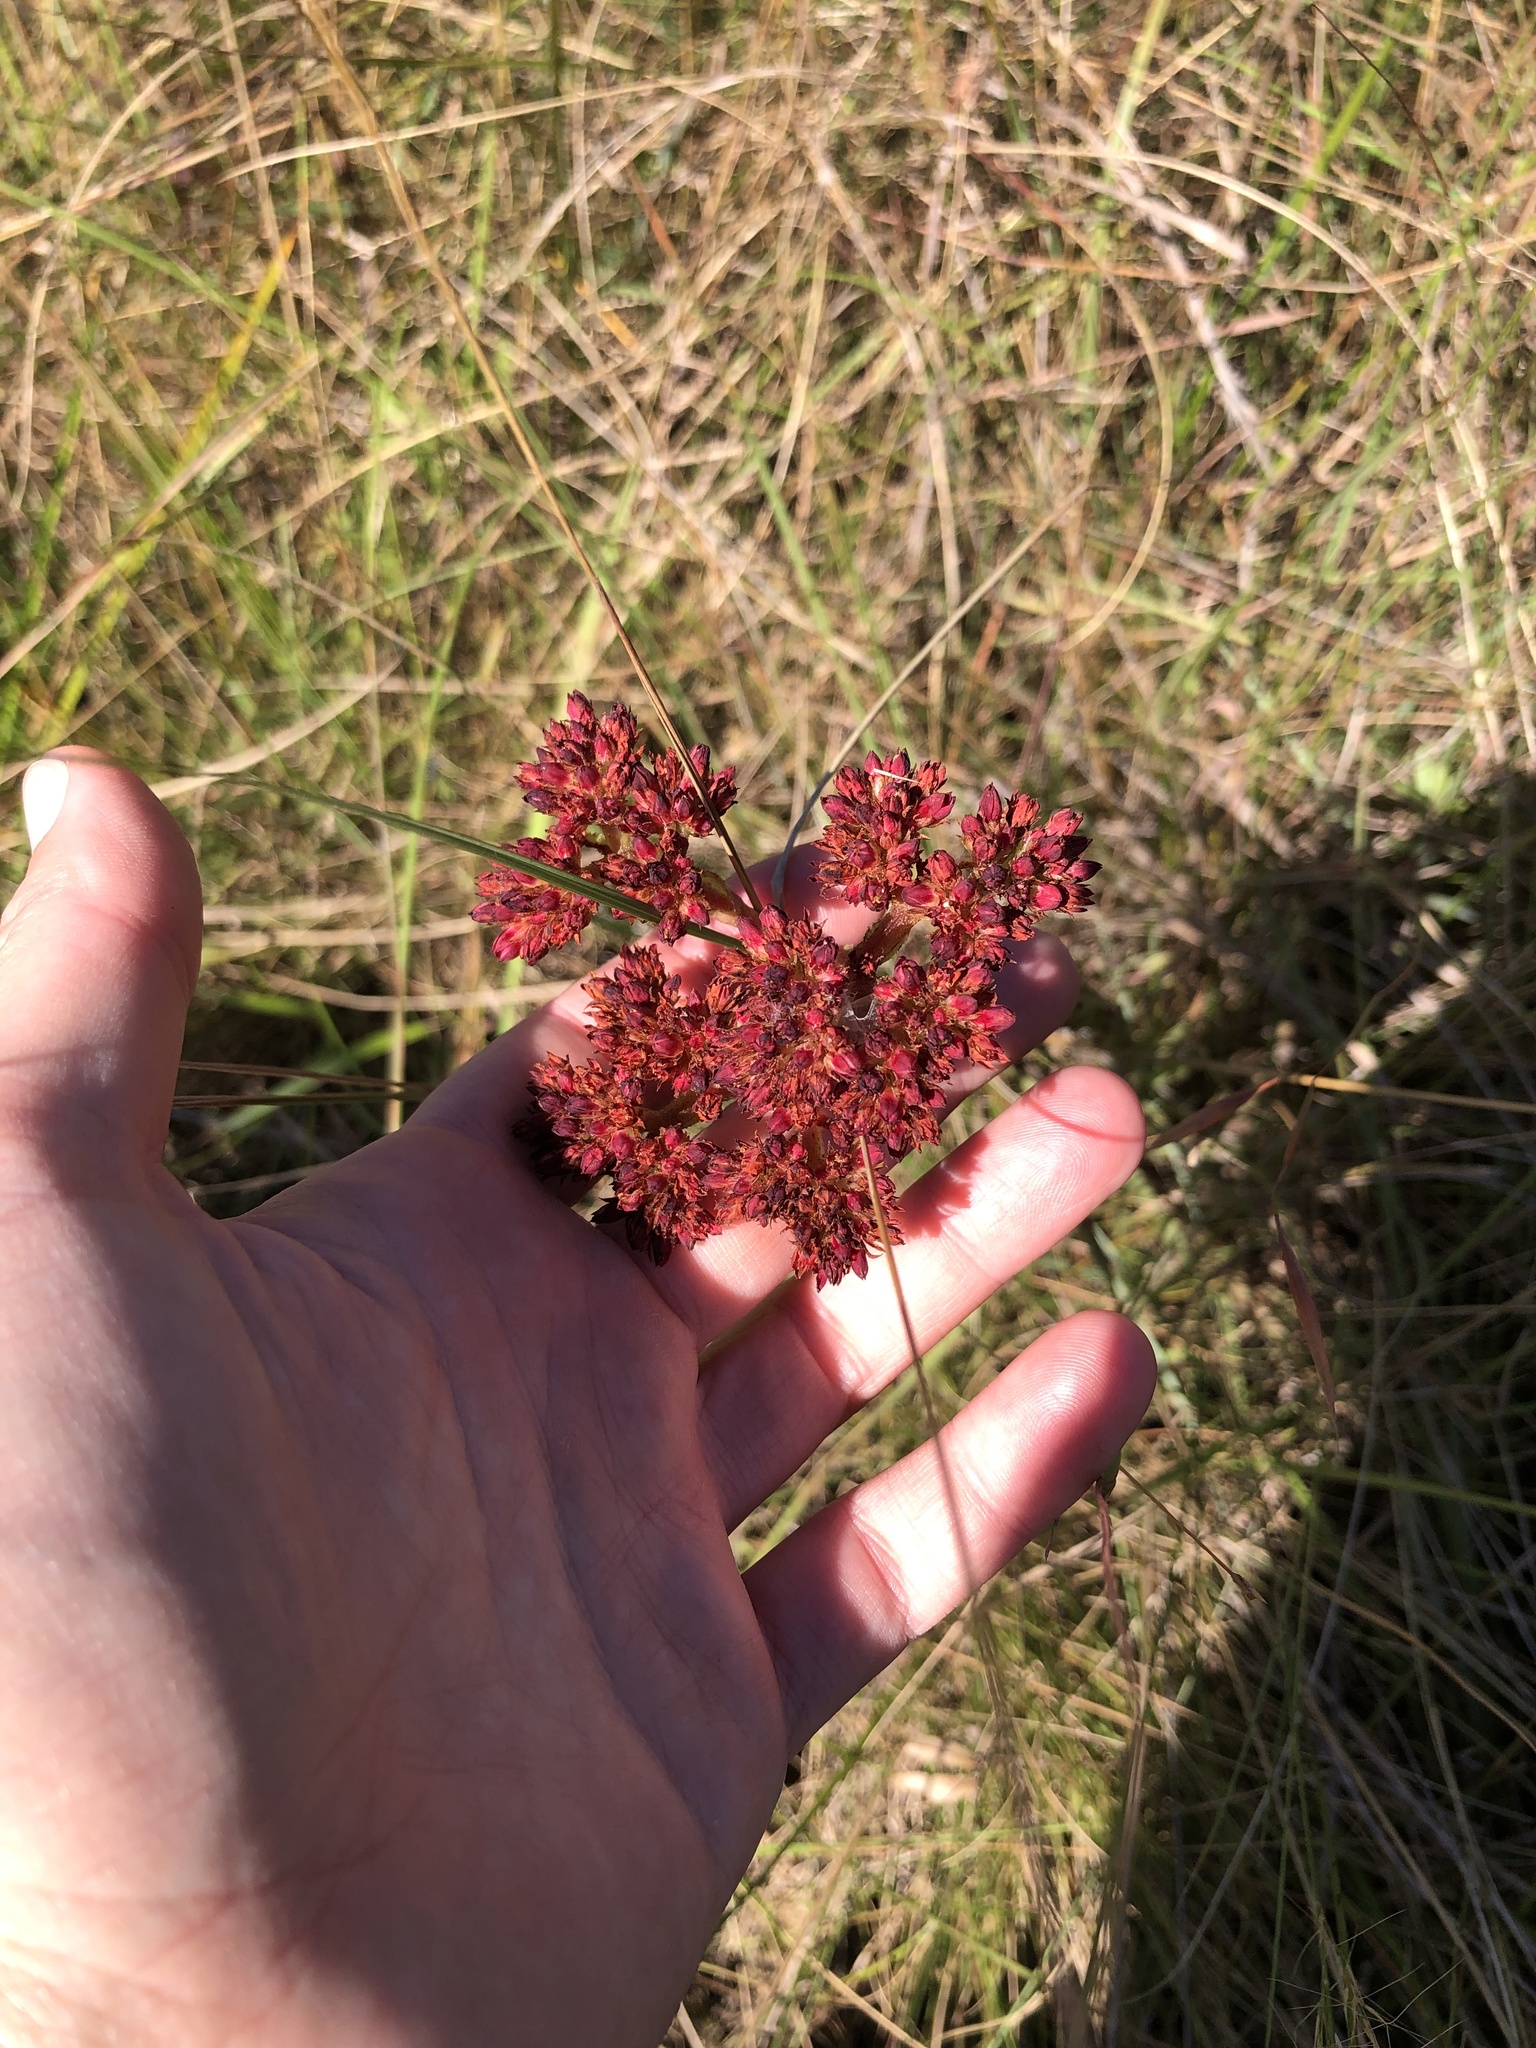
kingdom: Plantae
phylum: Tracheophyta
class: Magnoliopsida
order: Saxifragales
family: Crassulaceae
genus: Crassula
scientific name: Crassula alba
